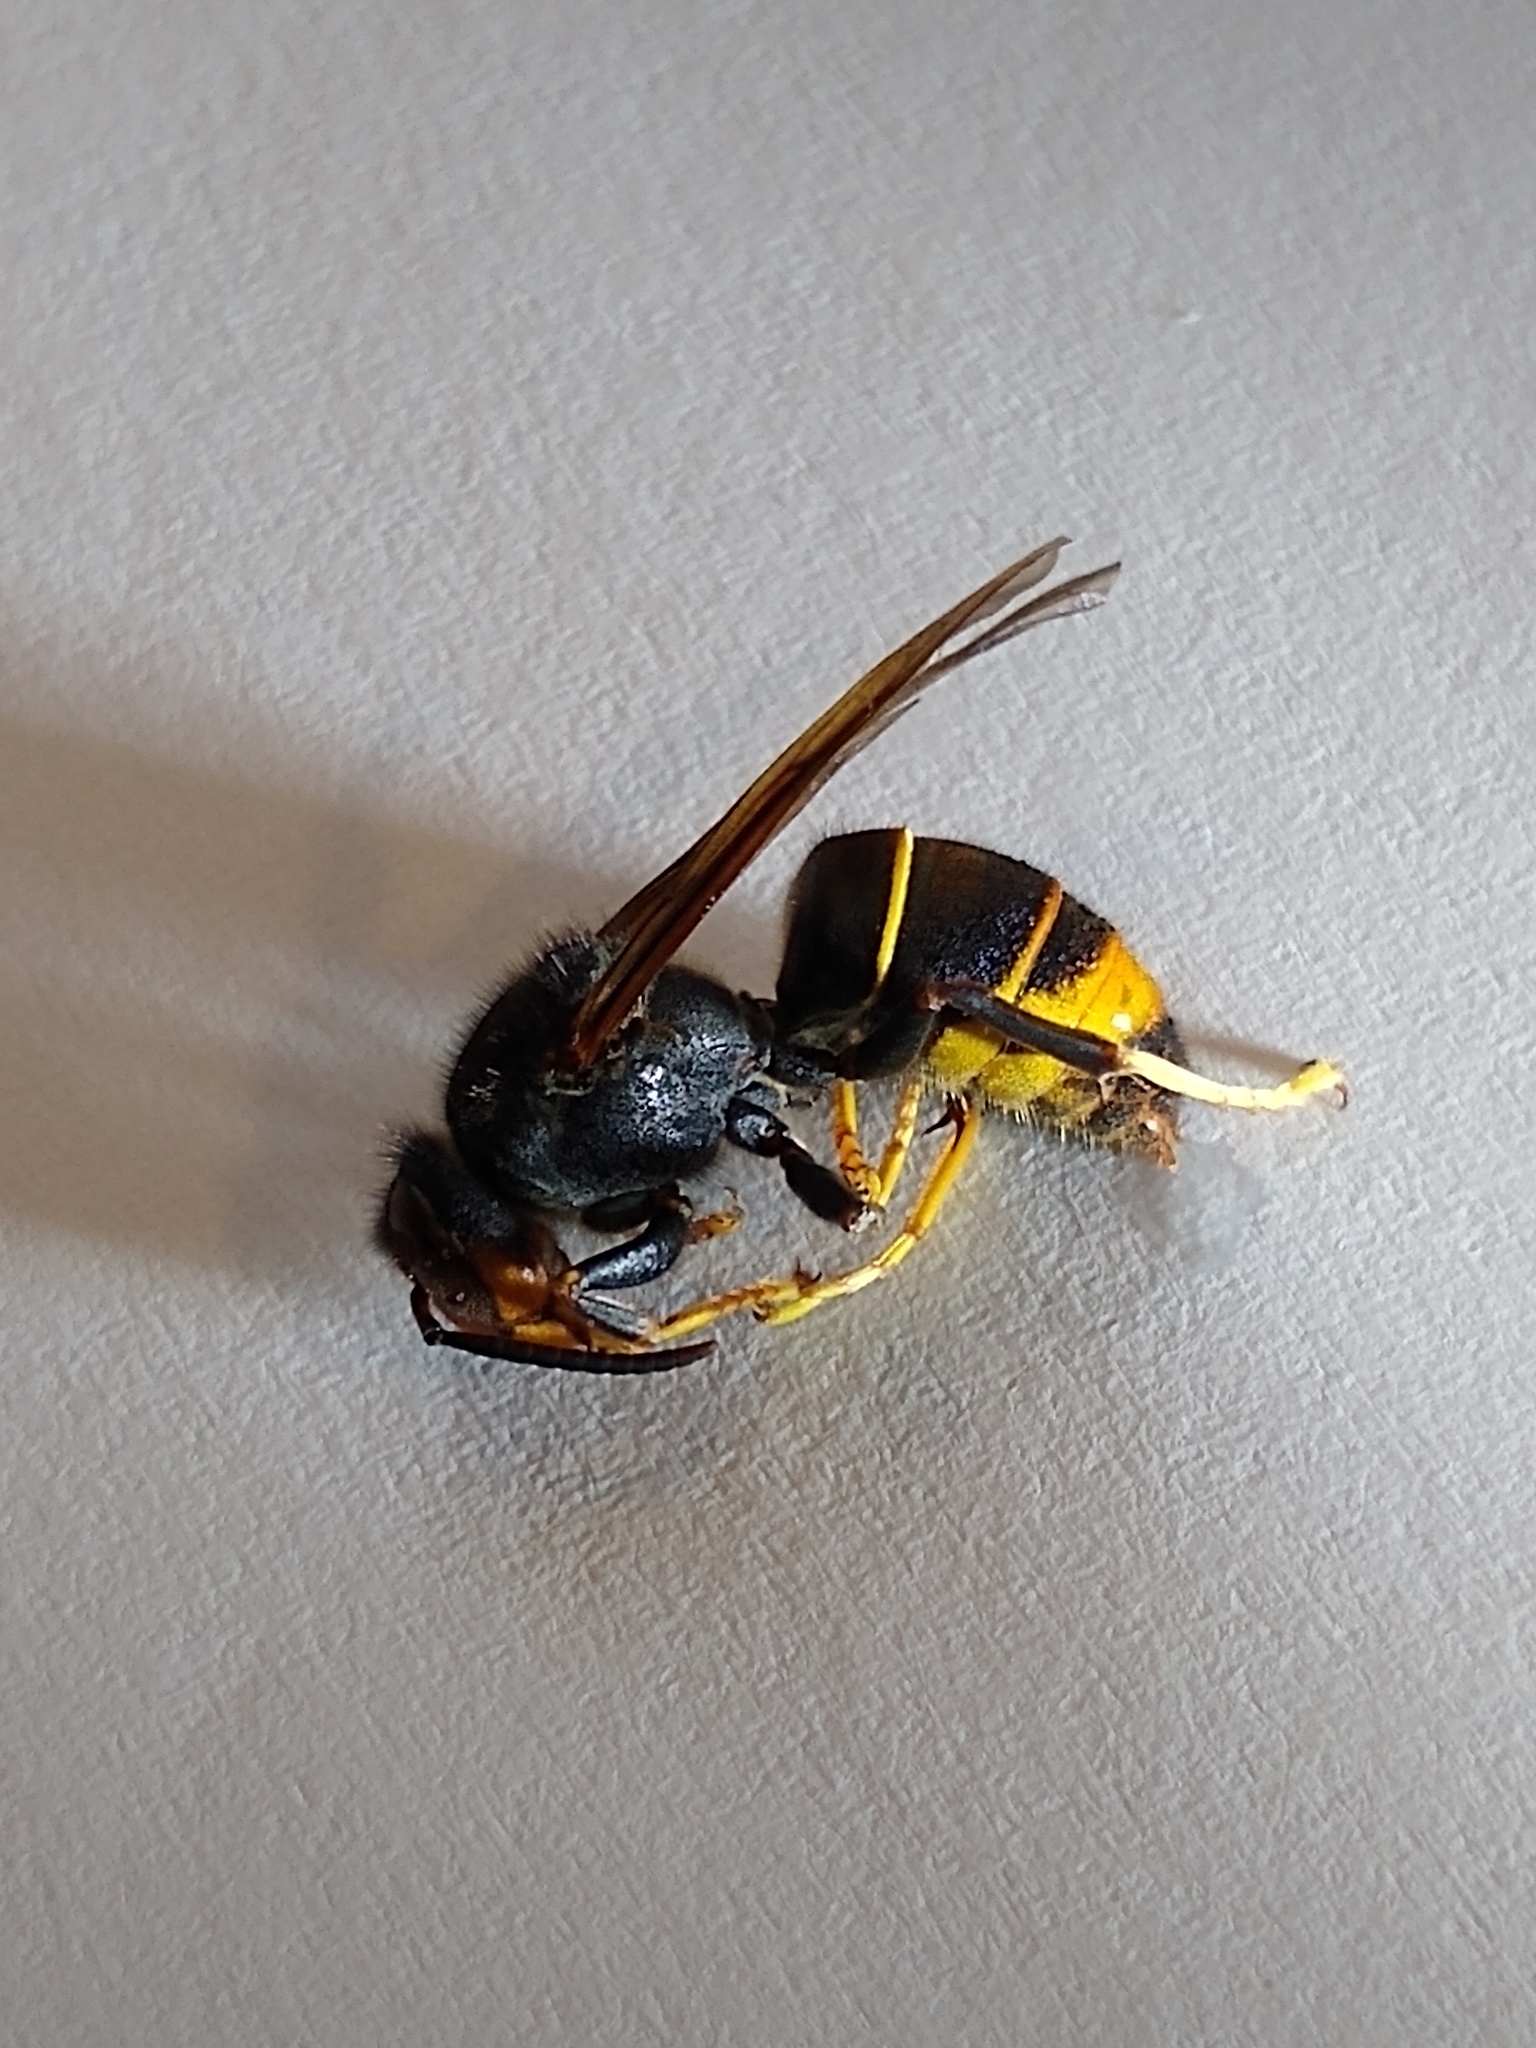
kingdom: Animalia
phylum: Arthropoda
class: Insecta
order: Hymenoptera
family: Vespidae
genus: Vespa
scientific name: Vespa velutina
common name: Asian hornet
